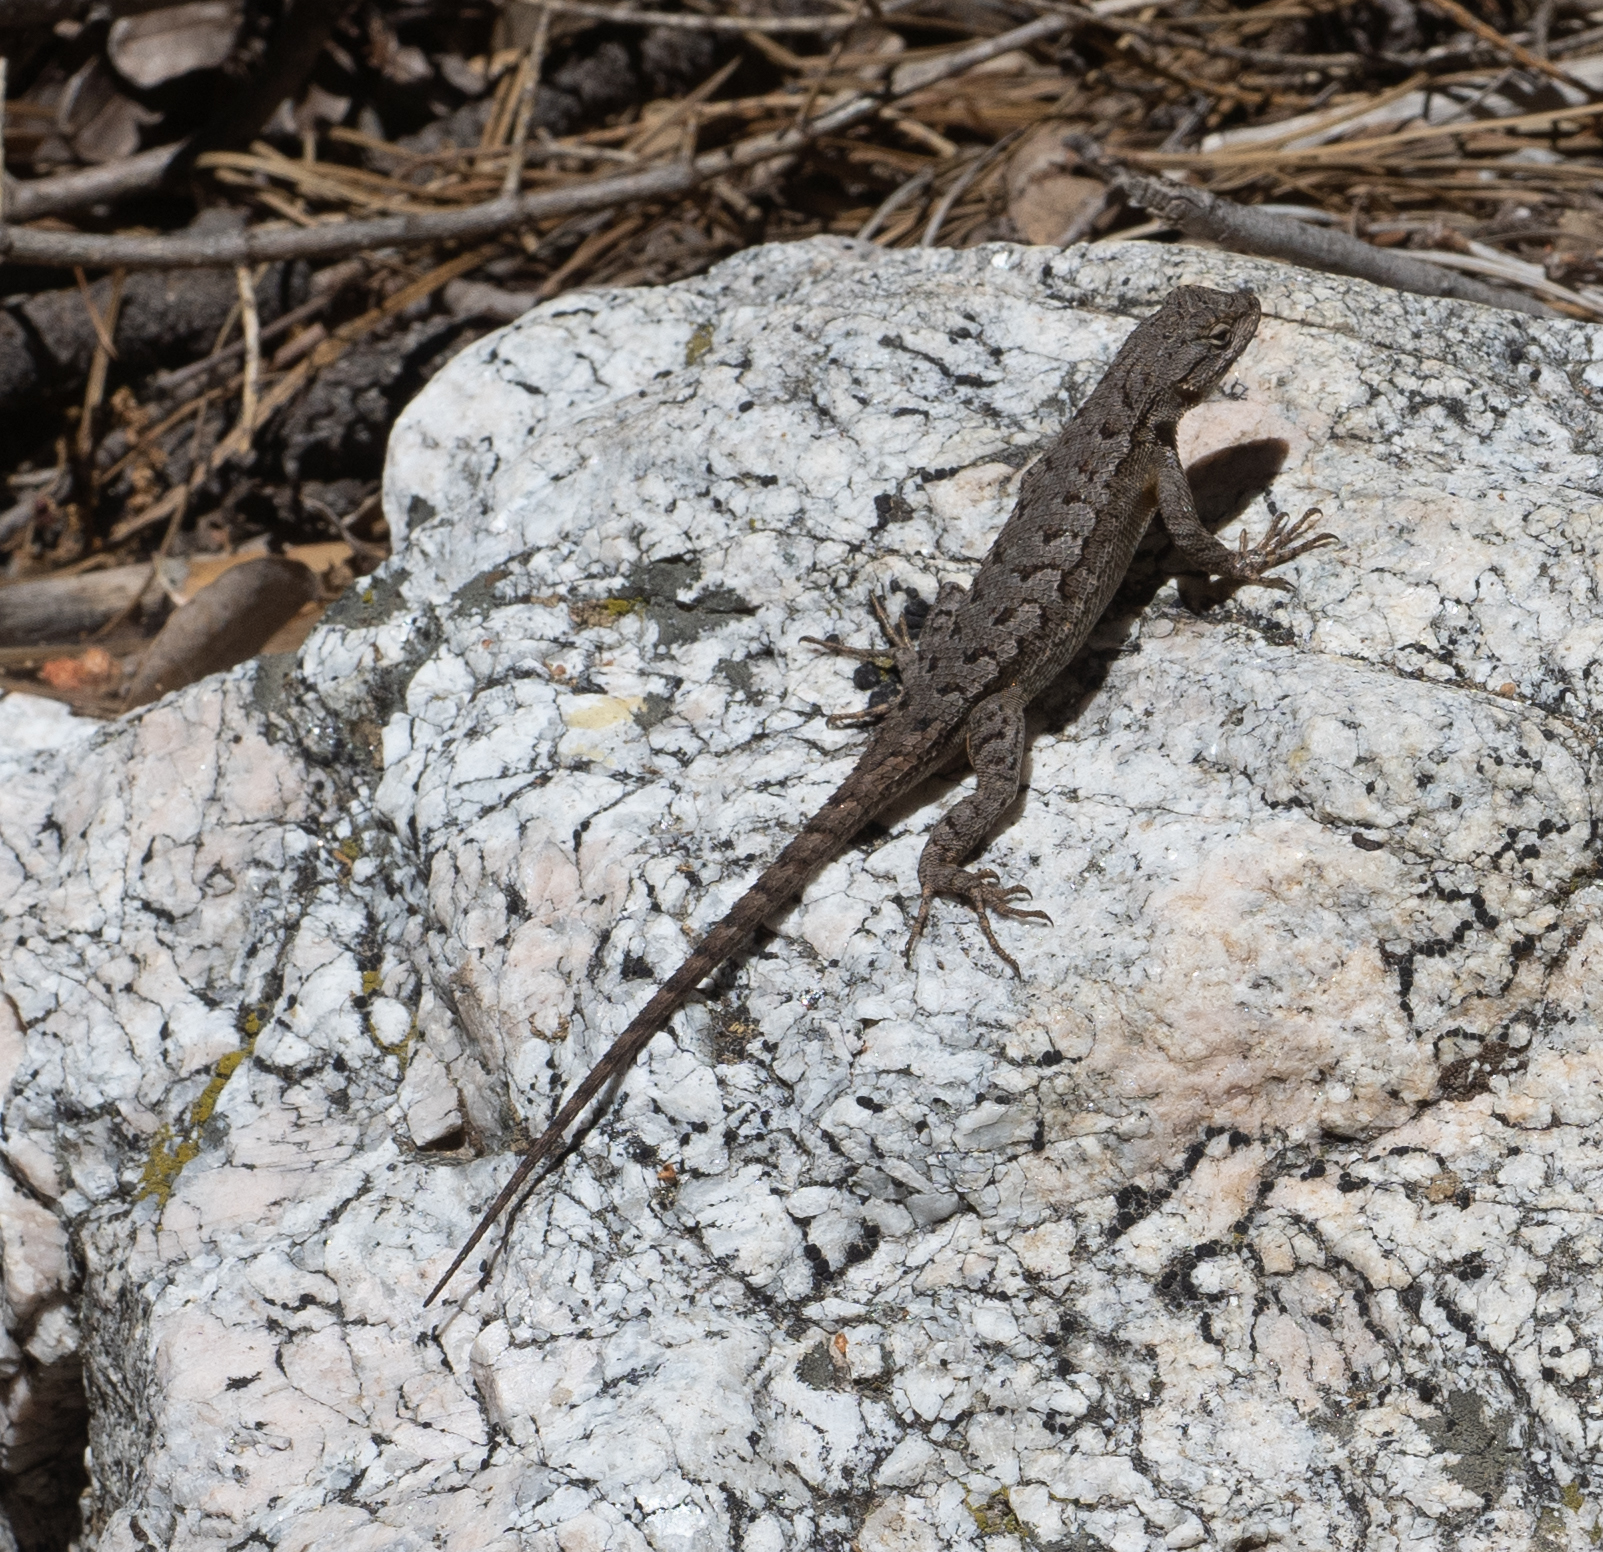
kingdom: Animalia
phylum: Chordata
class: Squamata
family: Phrynosomatidae
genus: Sceloporus
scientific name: Sceloporus occidentalis
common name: Western fence lizard
